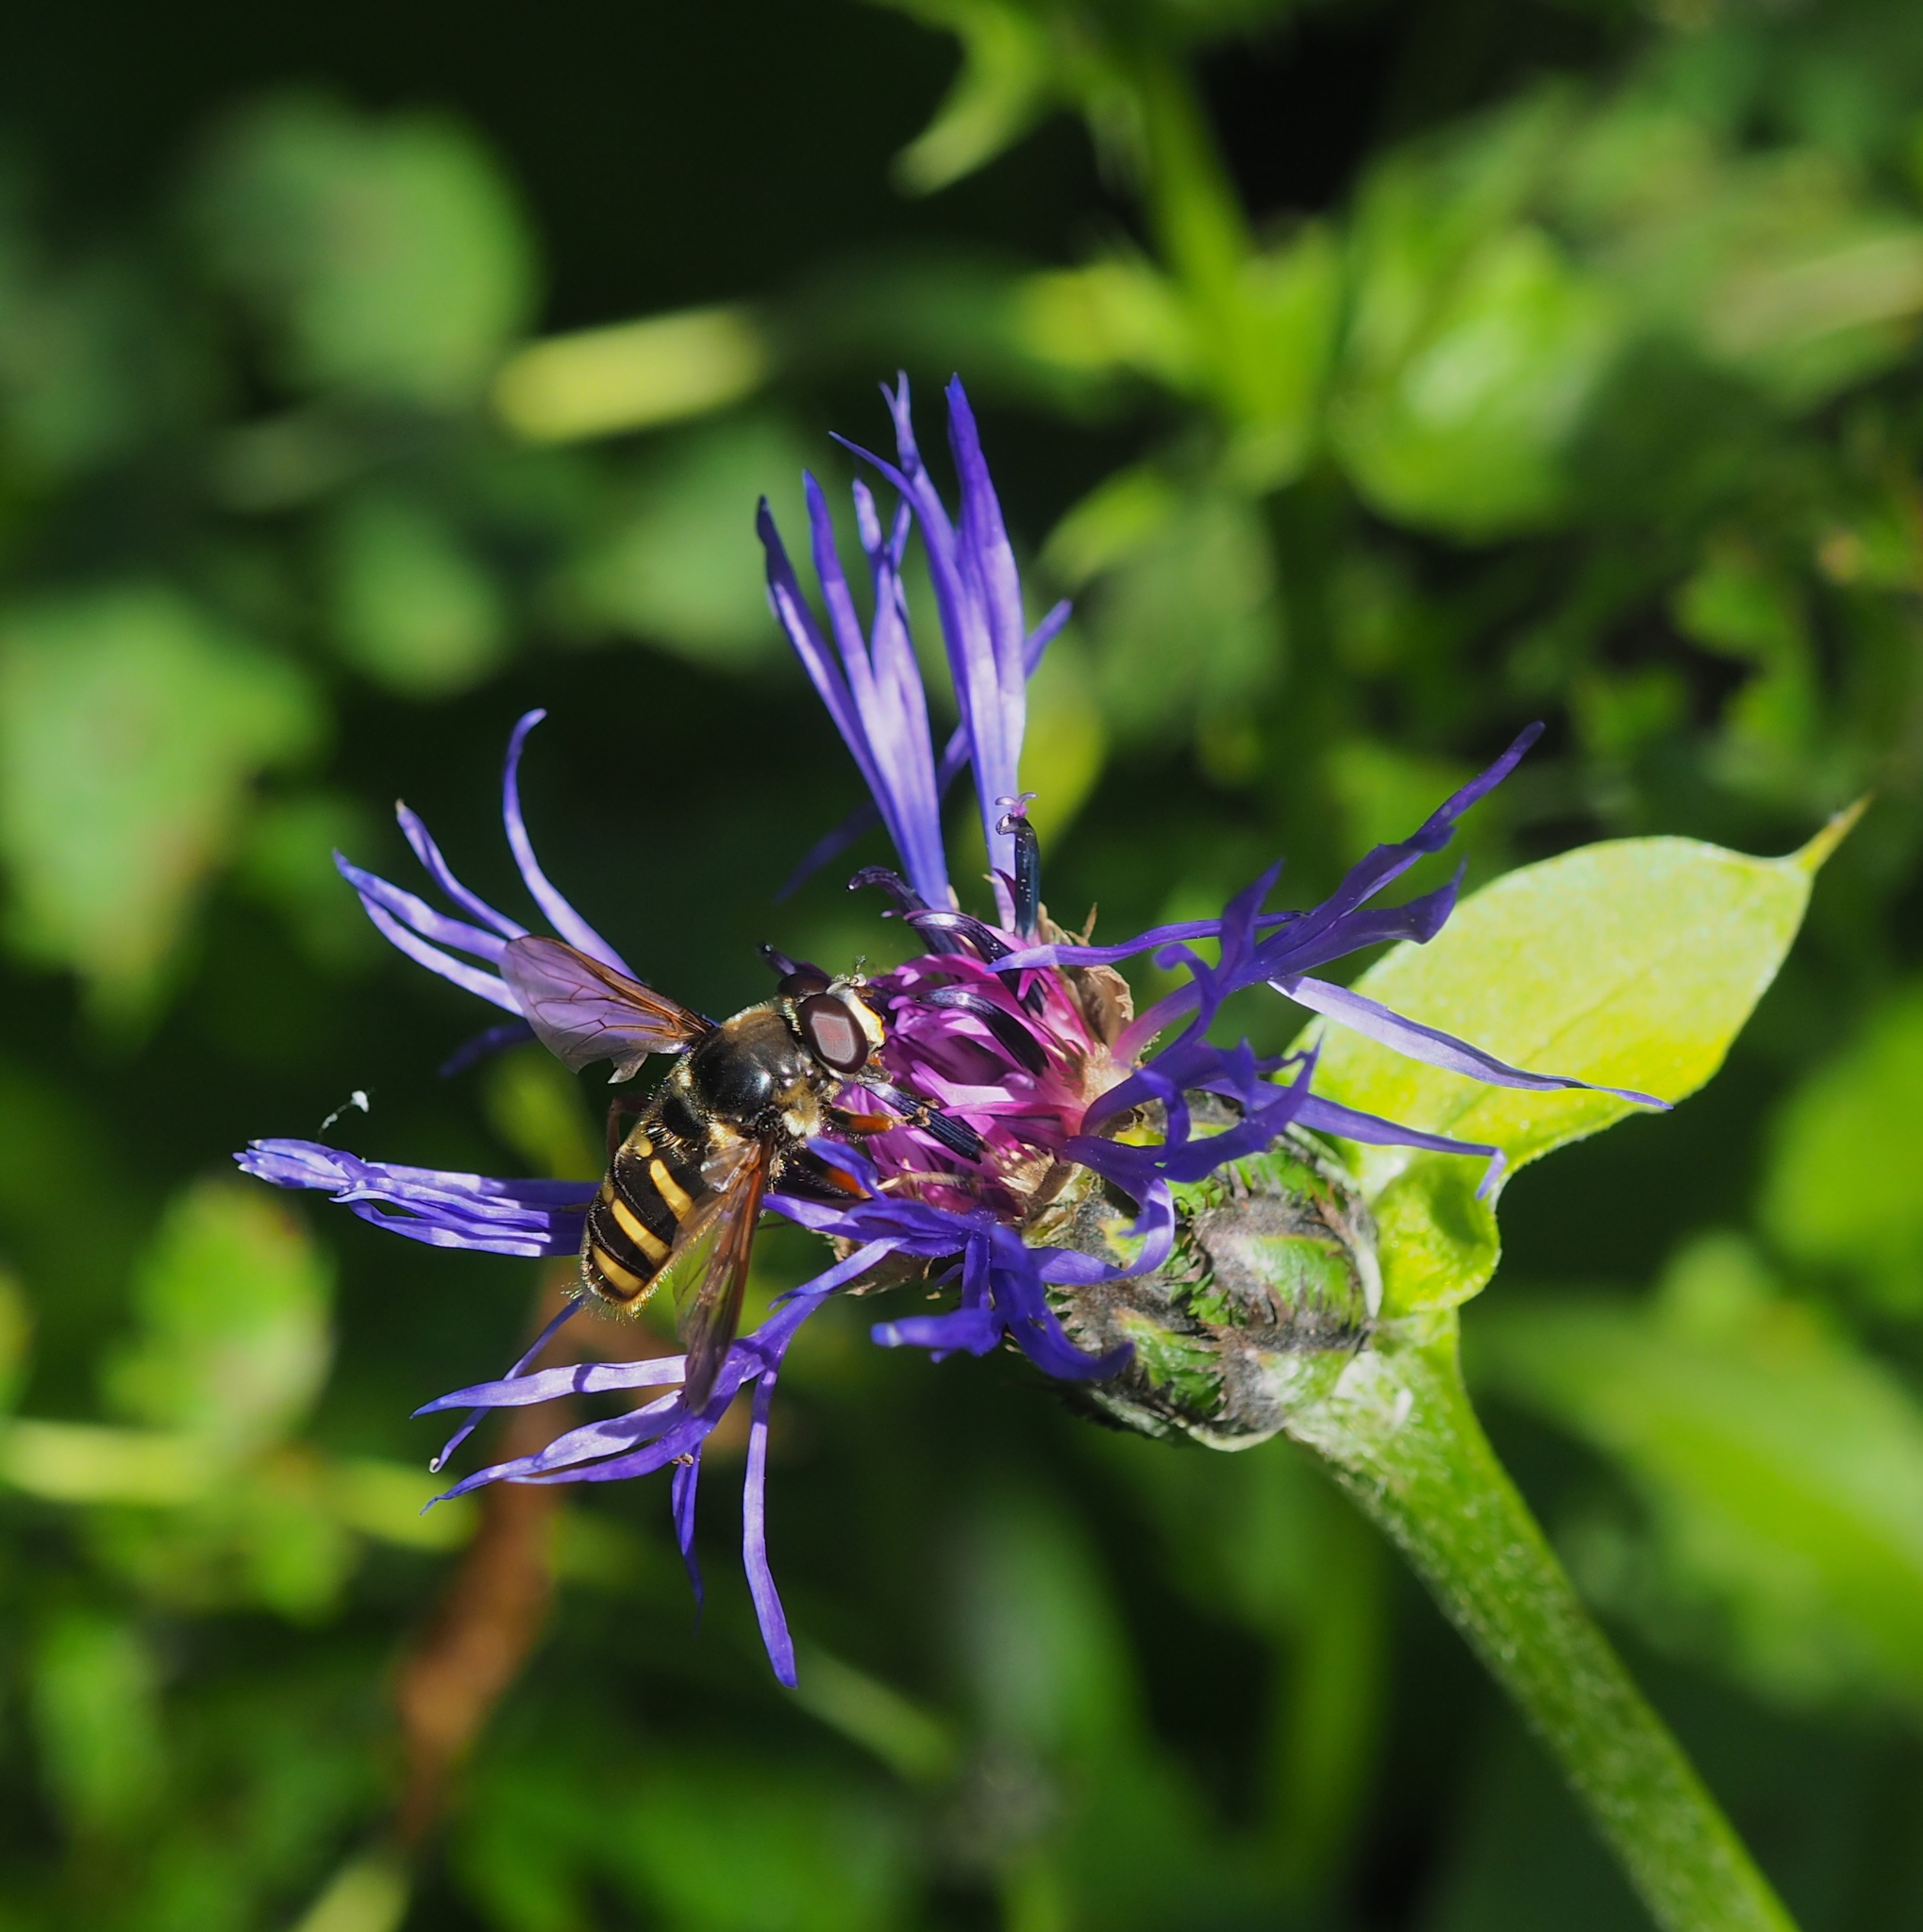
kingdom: Animalia
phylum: Arthropoda
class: Insecta
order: Diptera
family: Syrphidae
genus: Sericomyia
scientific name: Sericomyia silentis
